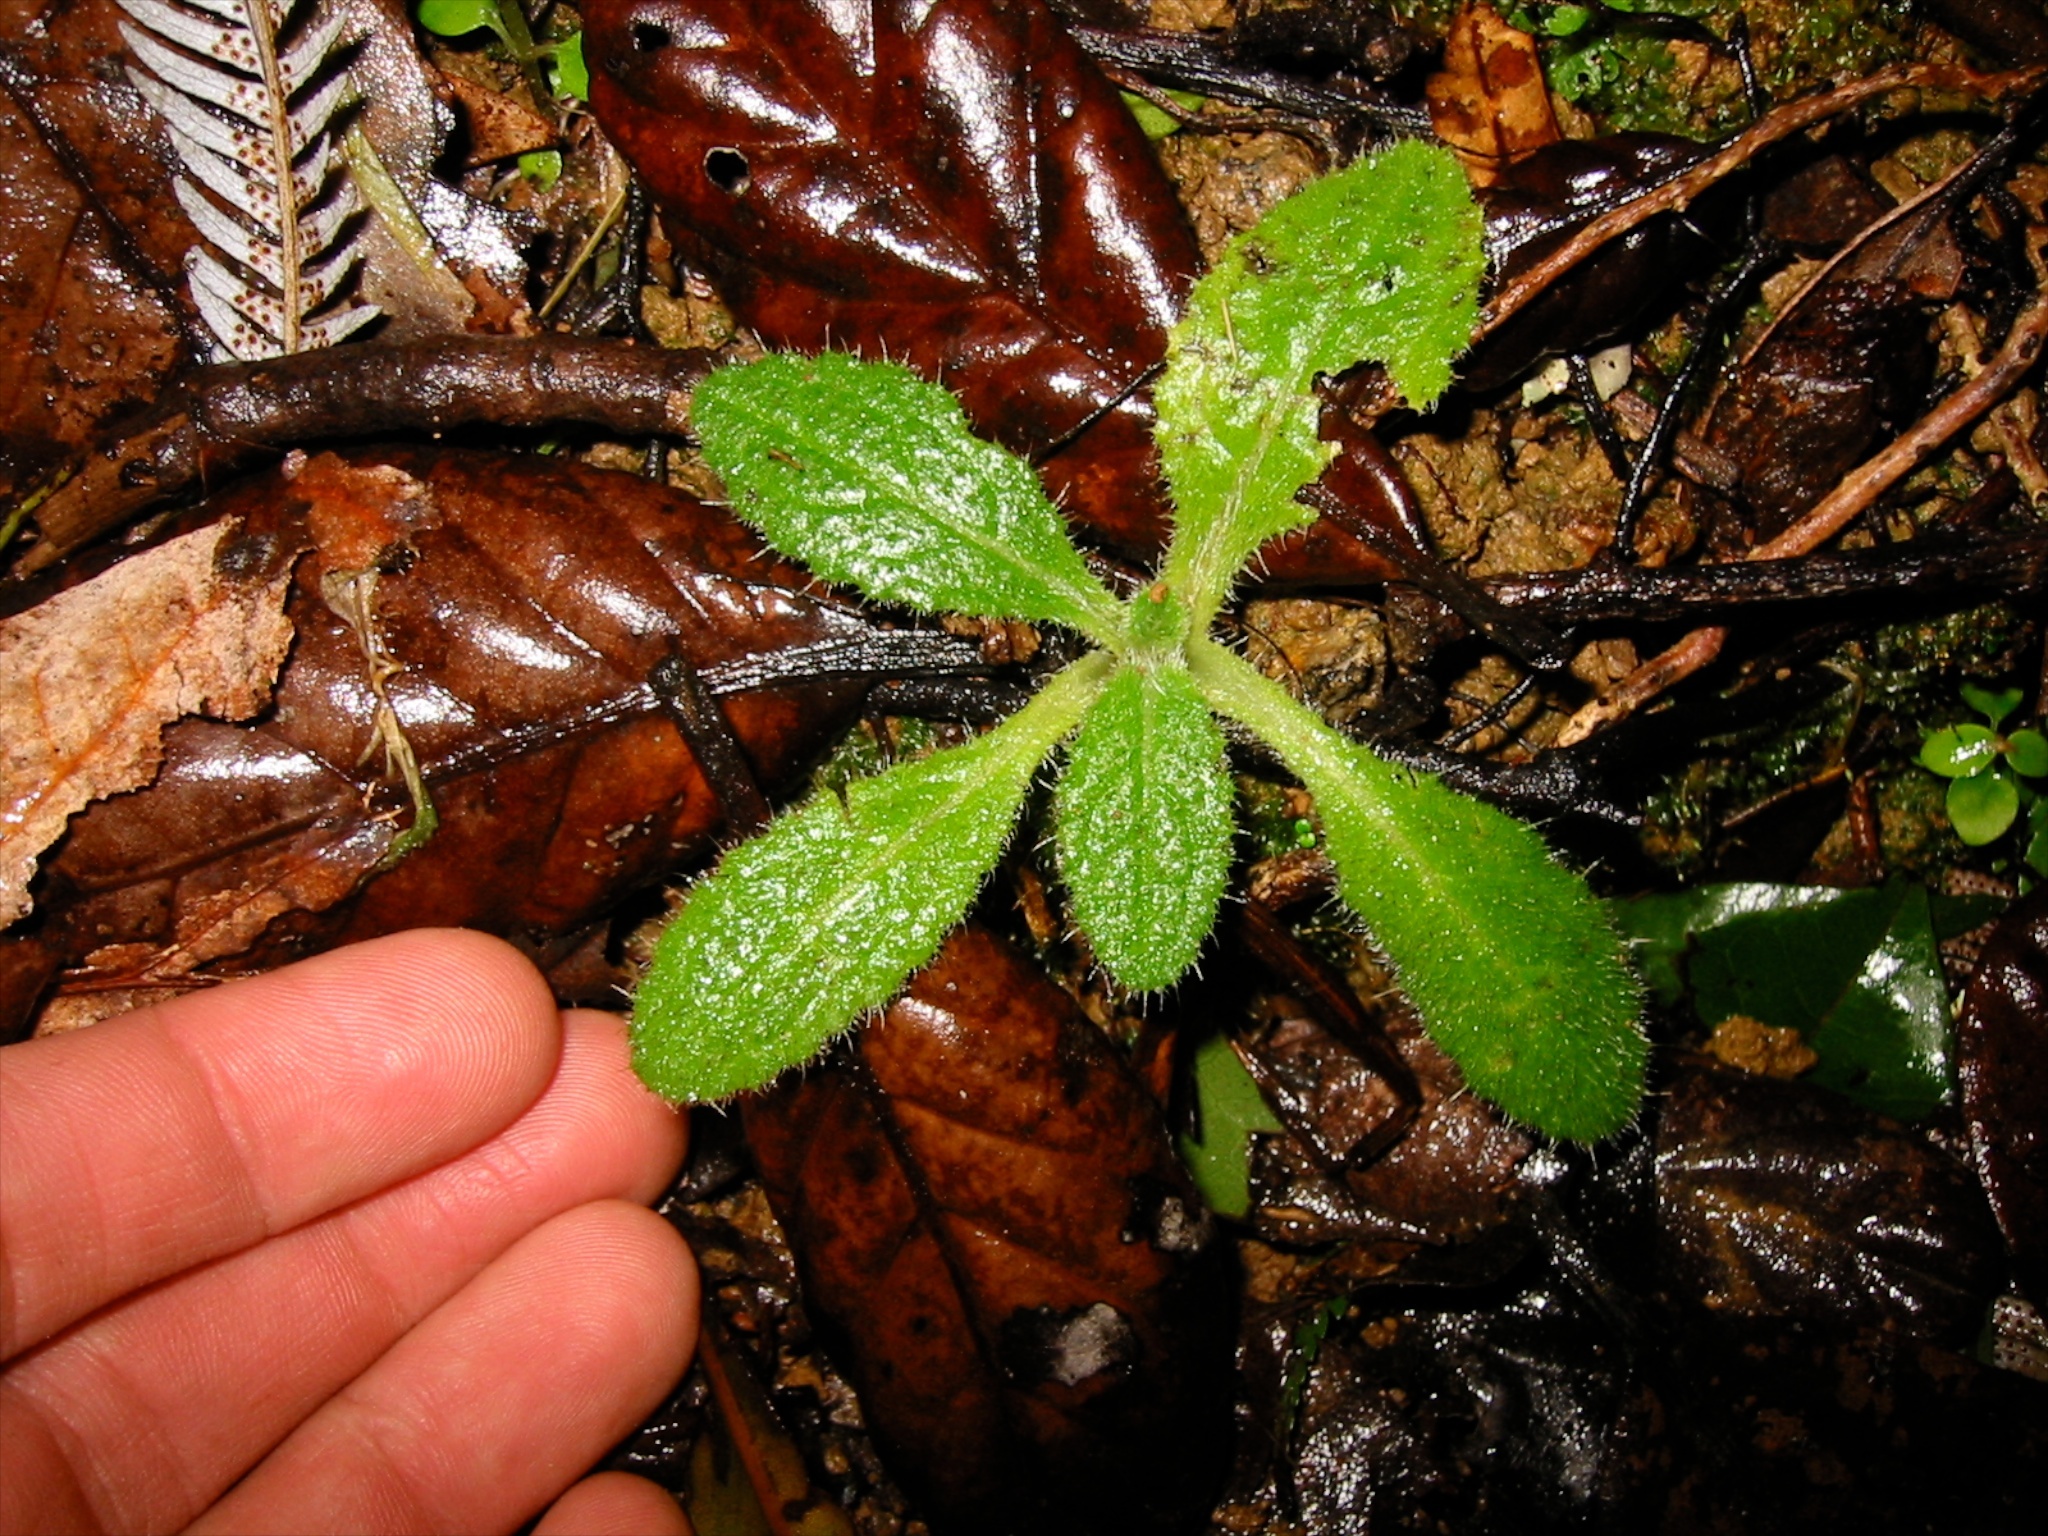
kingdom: Plantae
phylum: Tracheophyta
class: Magnoliopsida
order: Asterales
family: Asteraceae
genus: Cirsium
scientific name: Cirsium vulgare
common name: Bull thistle
